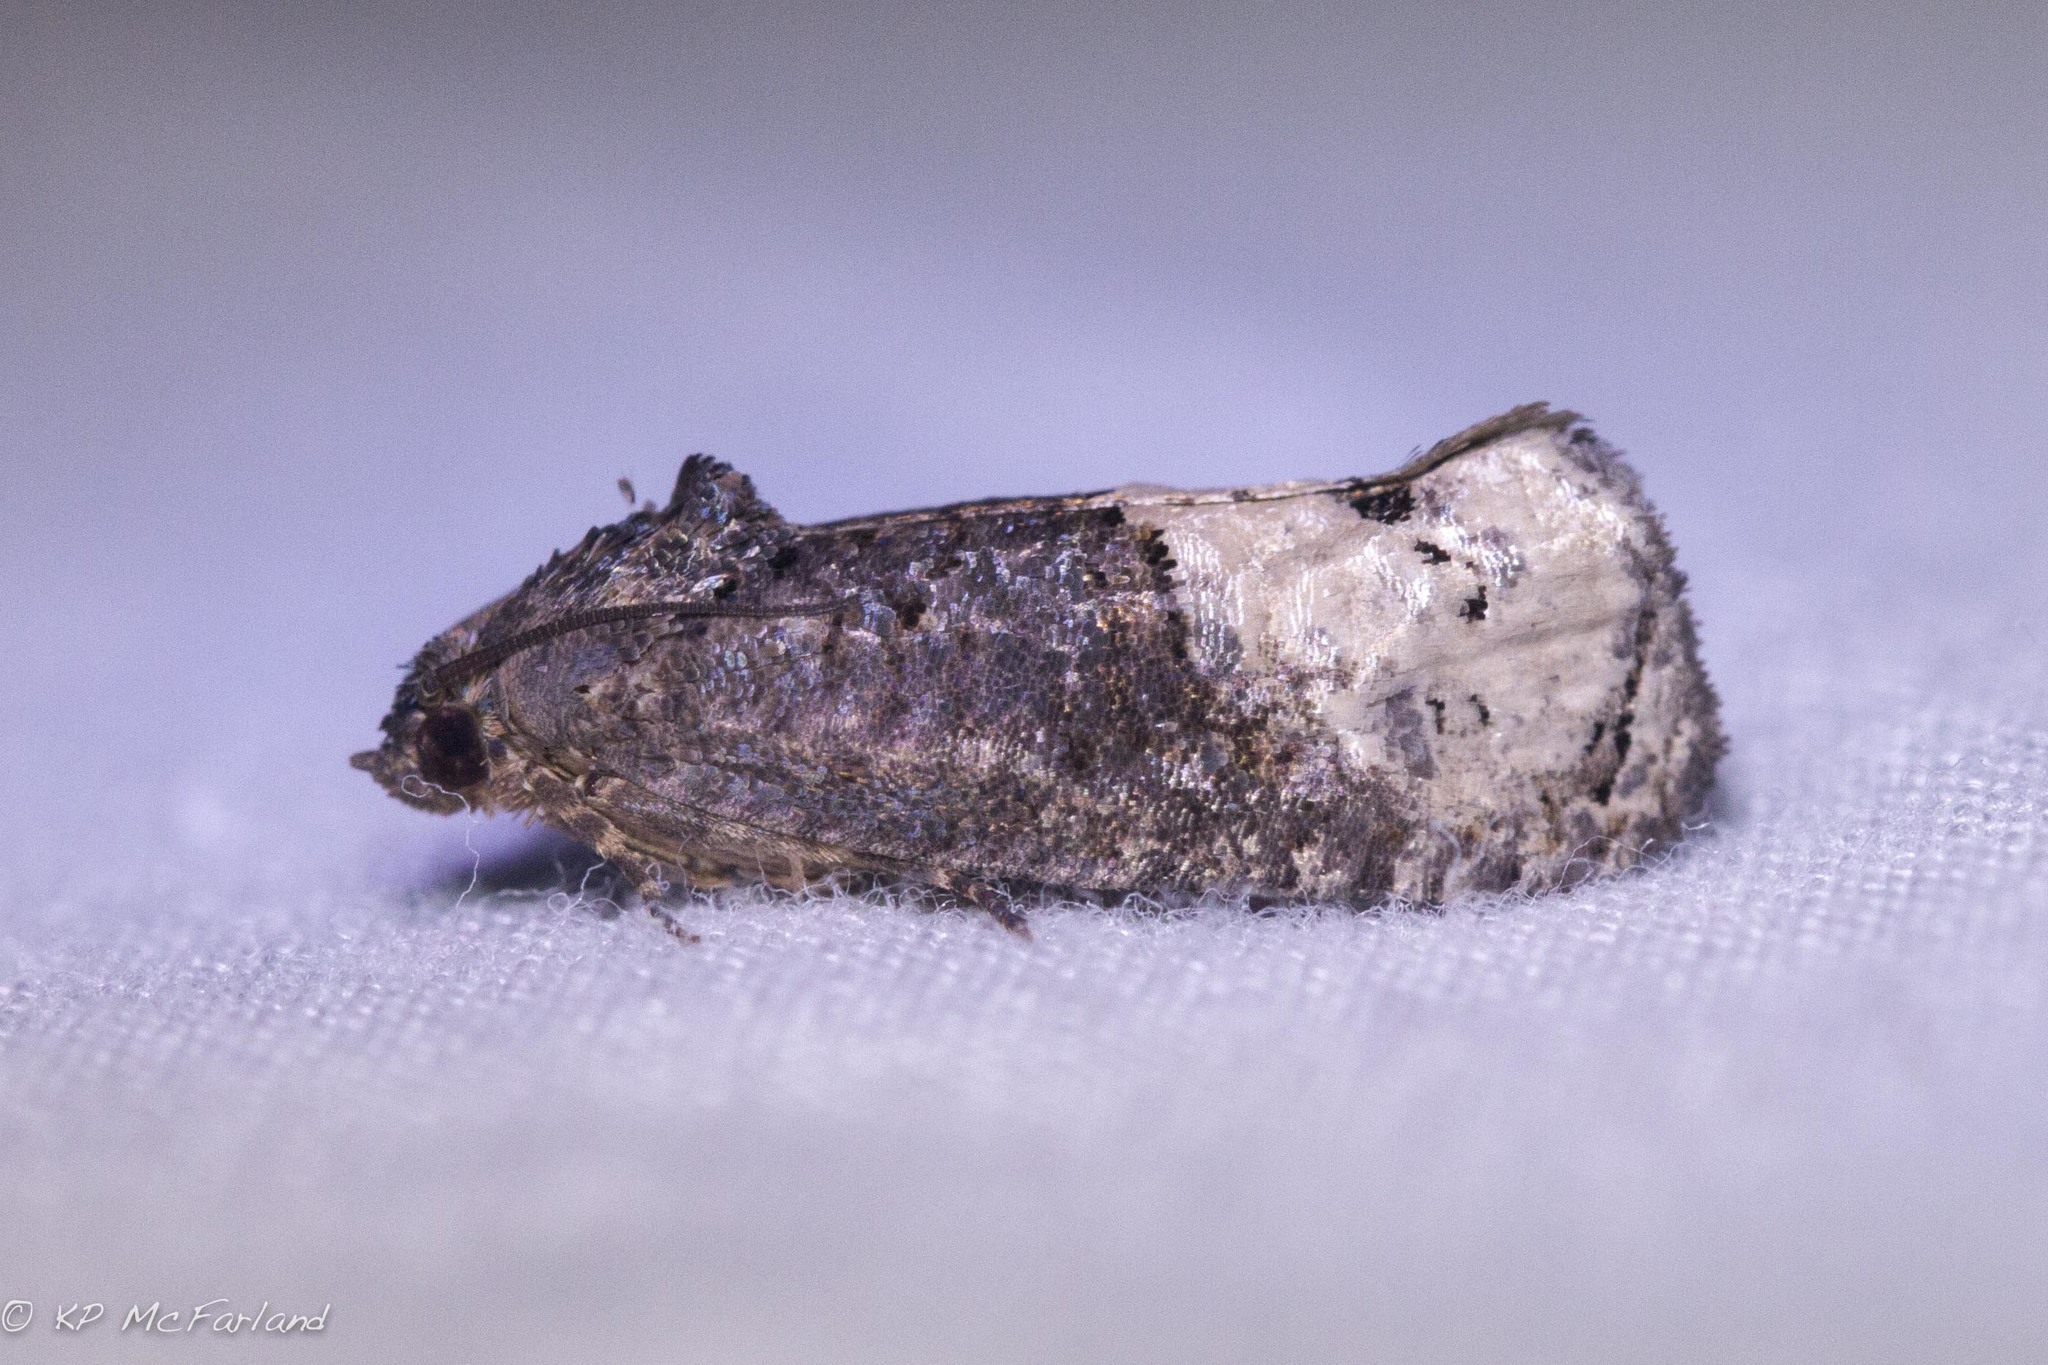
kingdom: Animalia
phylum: Arthropoda
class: Insecta
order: Lepidoptera
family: Tortricidae
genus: Ecdytolopha
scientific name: Ecdytolopha insiticiana
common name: Locust twig borer moth
